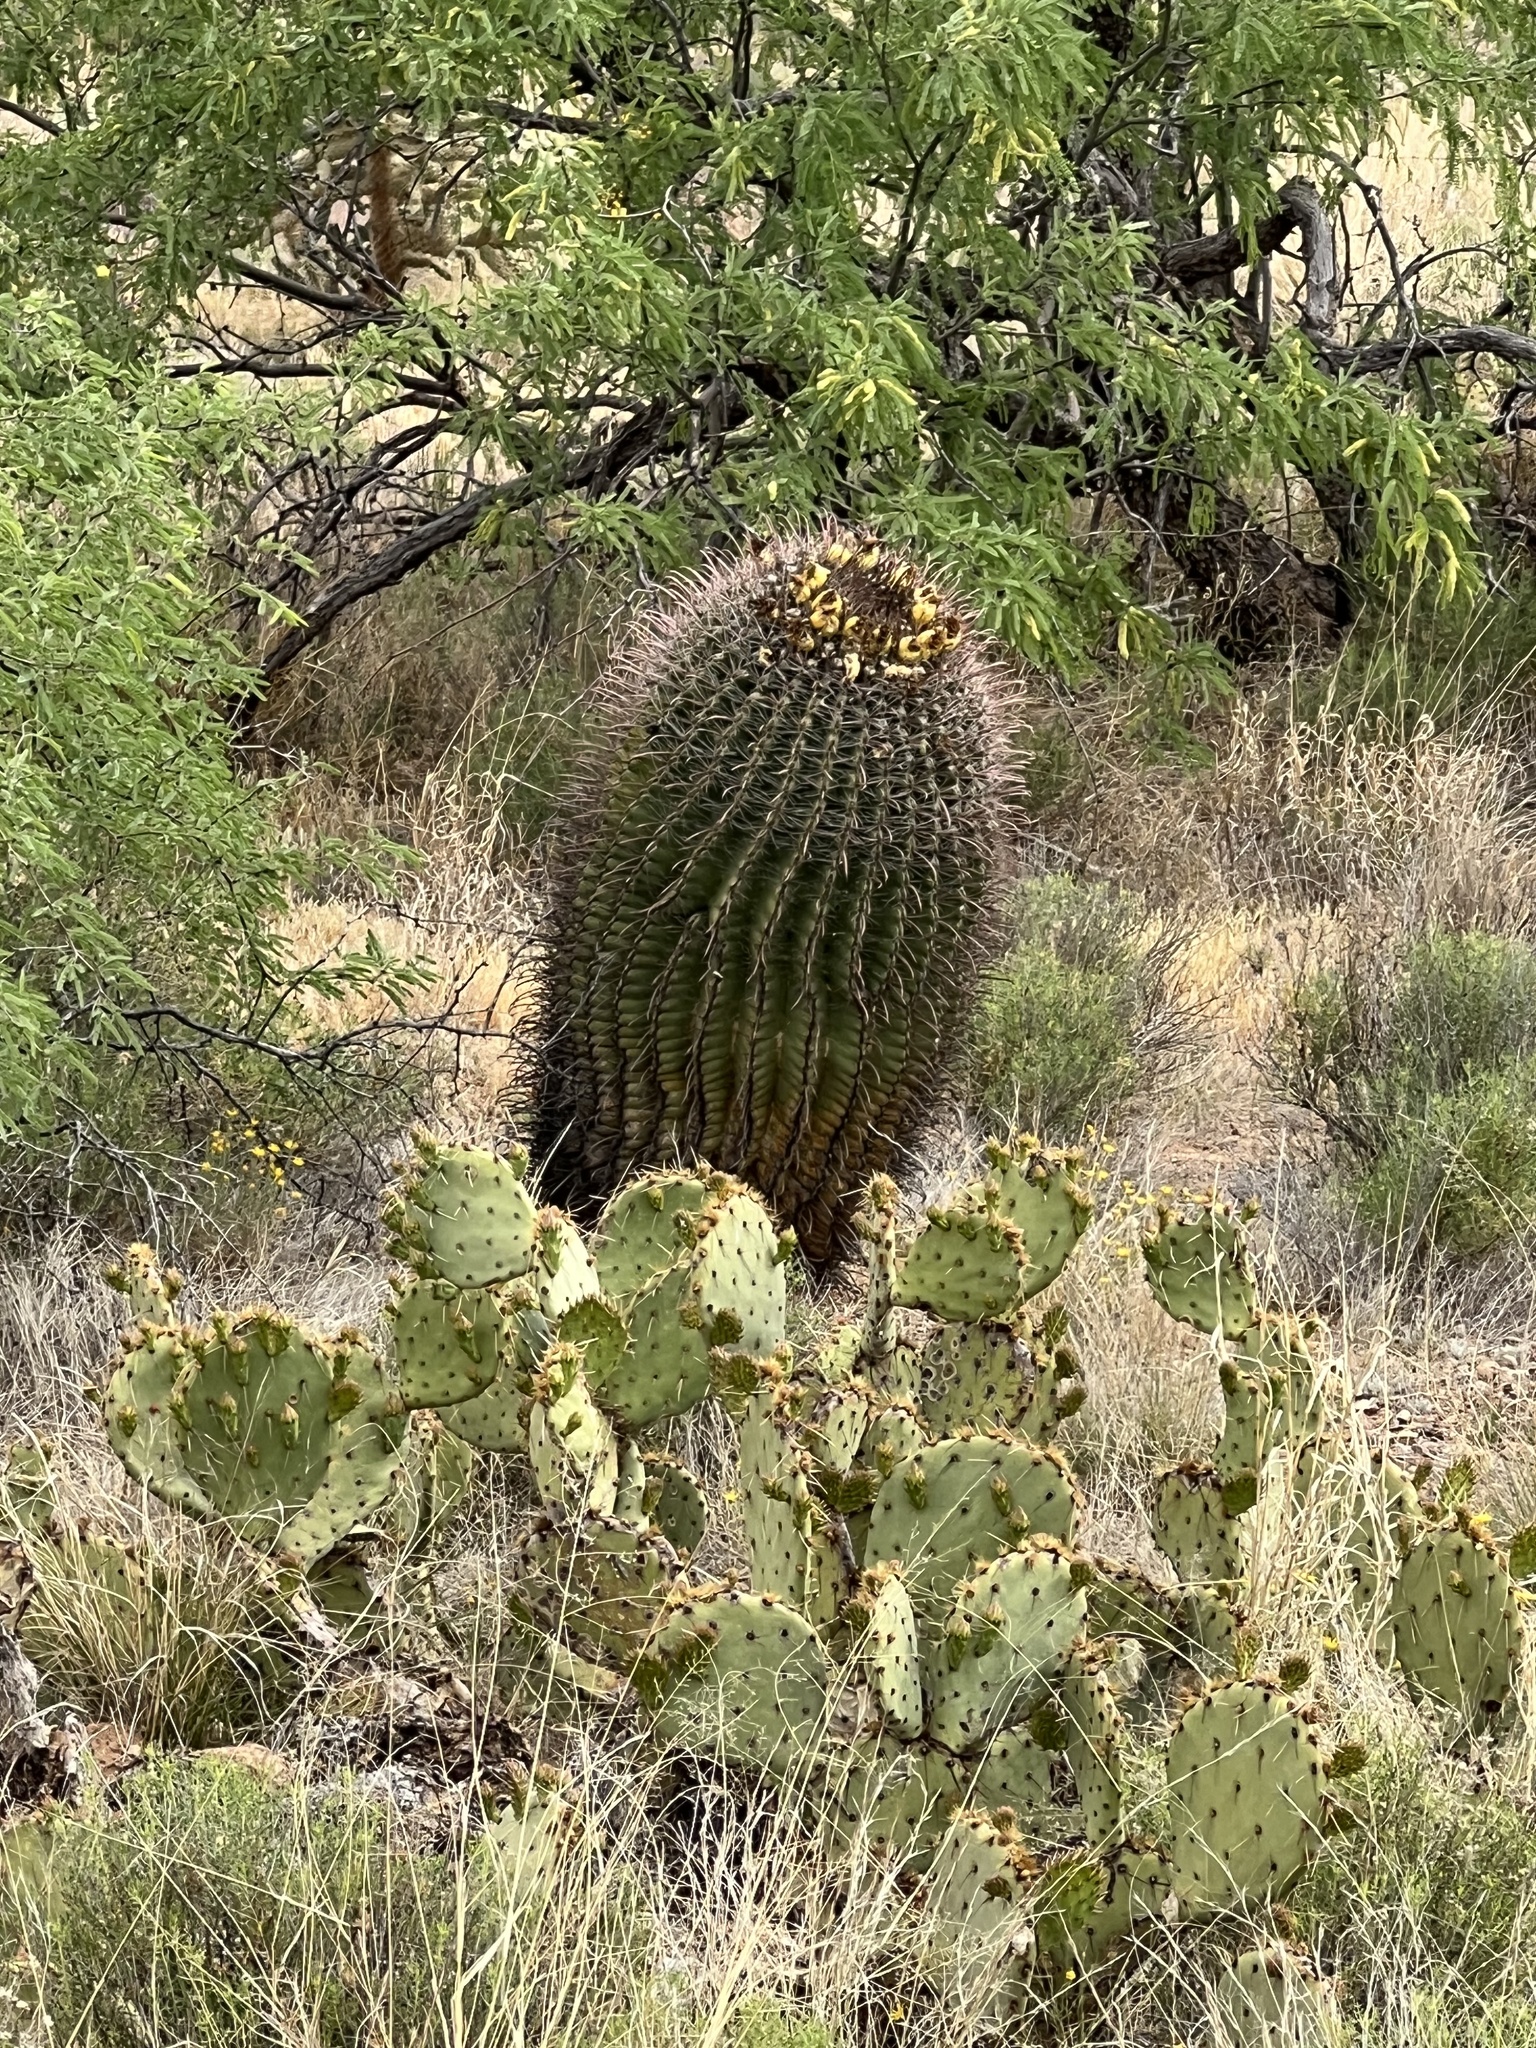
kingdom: Plantae
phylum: Tracheophyta
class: Magnoliopsida
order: Caryophyllales
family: Cactaceae
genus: Ferocactus
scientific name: Ferocactus wislizeni
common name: Candy barrel cactus
